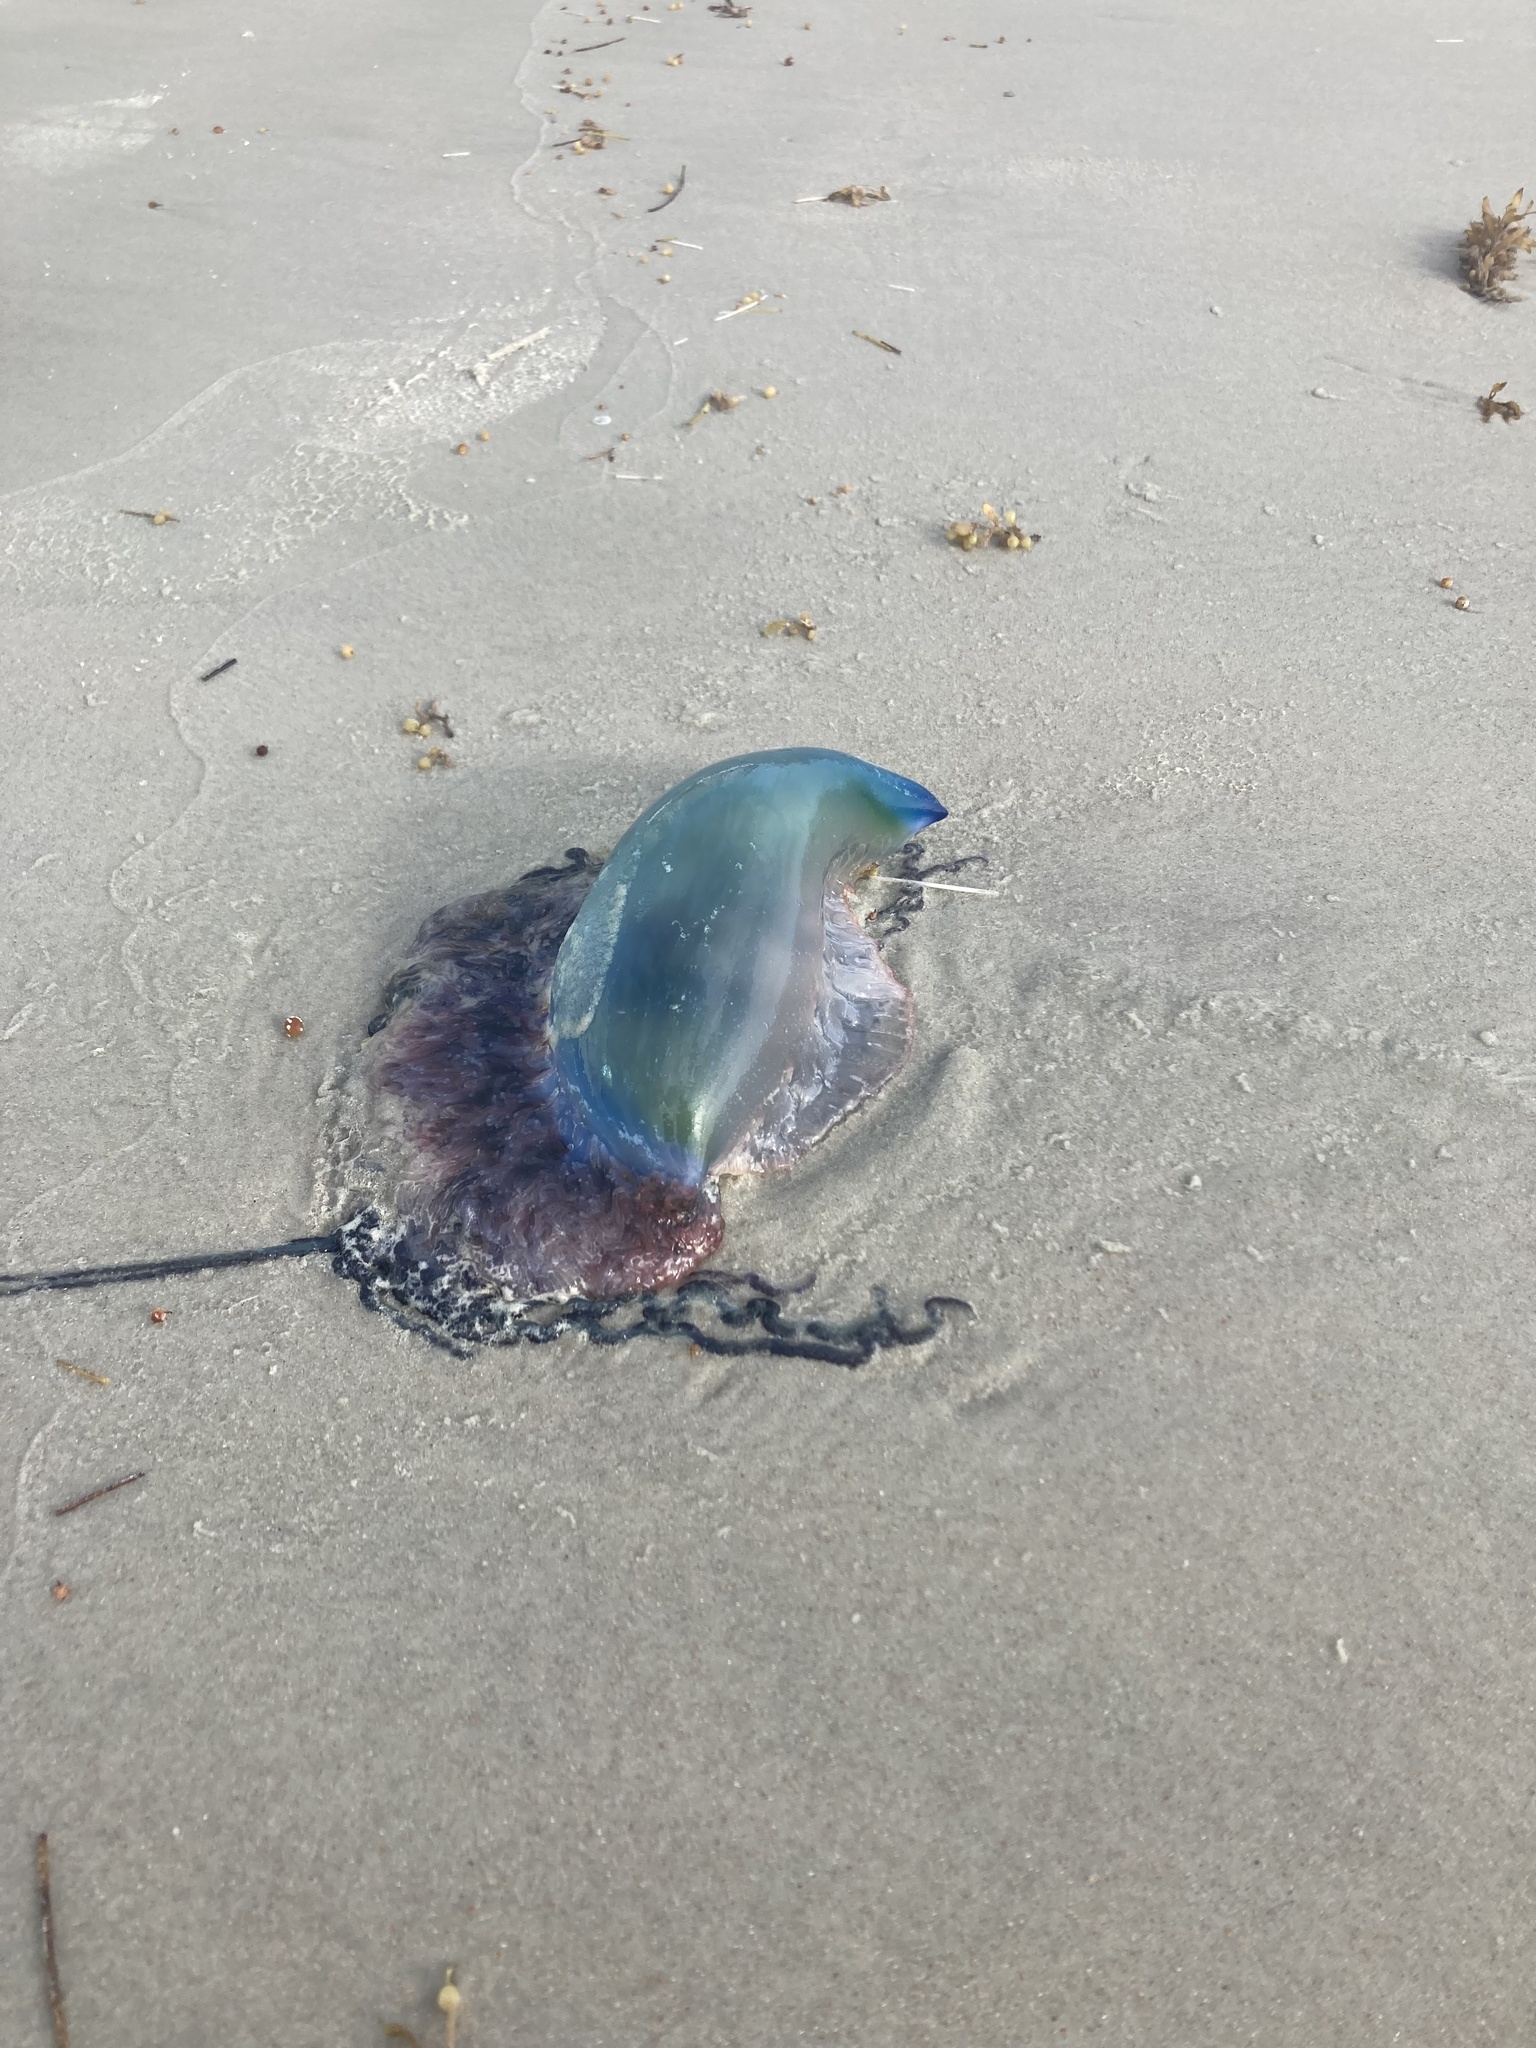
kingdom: Animalia
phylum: Cnidaria
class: Hydrozoa
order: Siphonophorae
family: Physaliidae
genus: Physalia
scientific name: Physalia physalis
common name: Portuguese man-of-war
